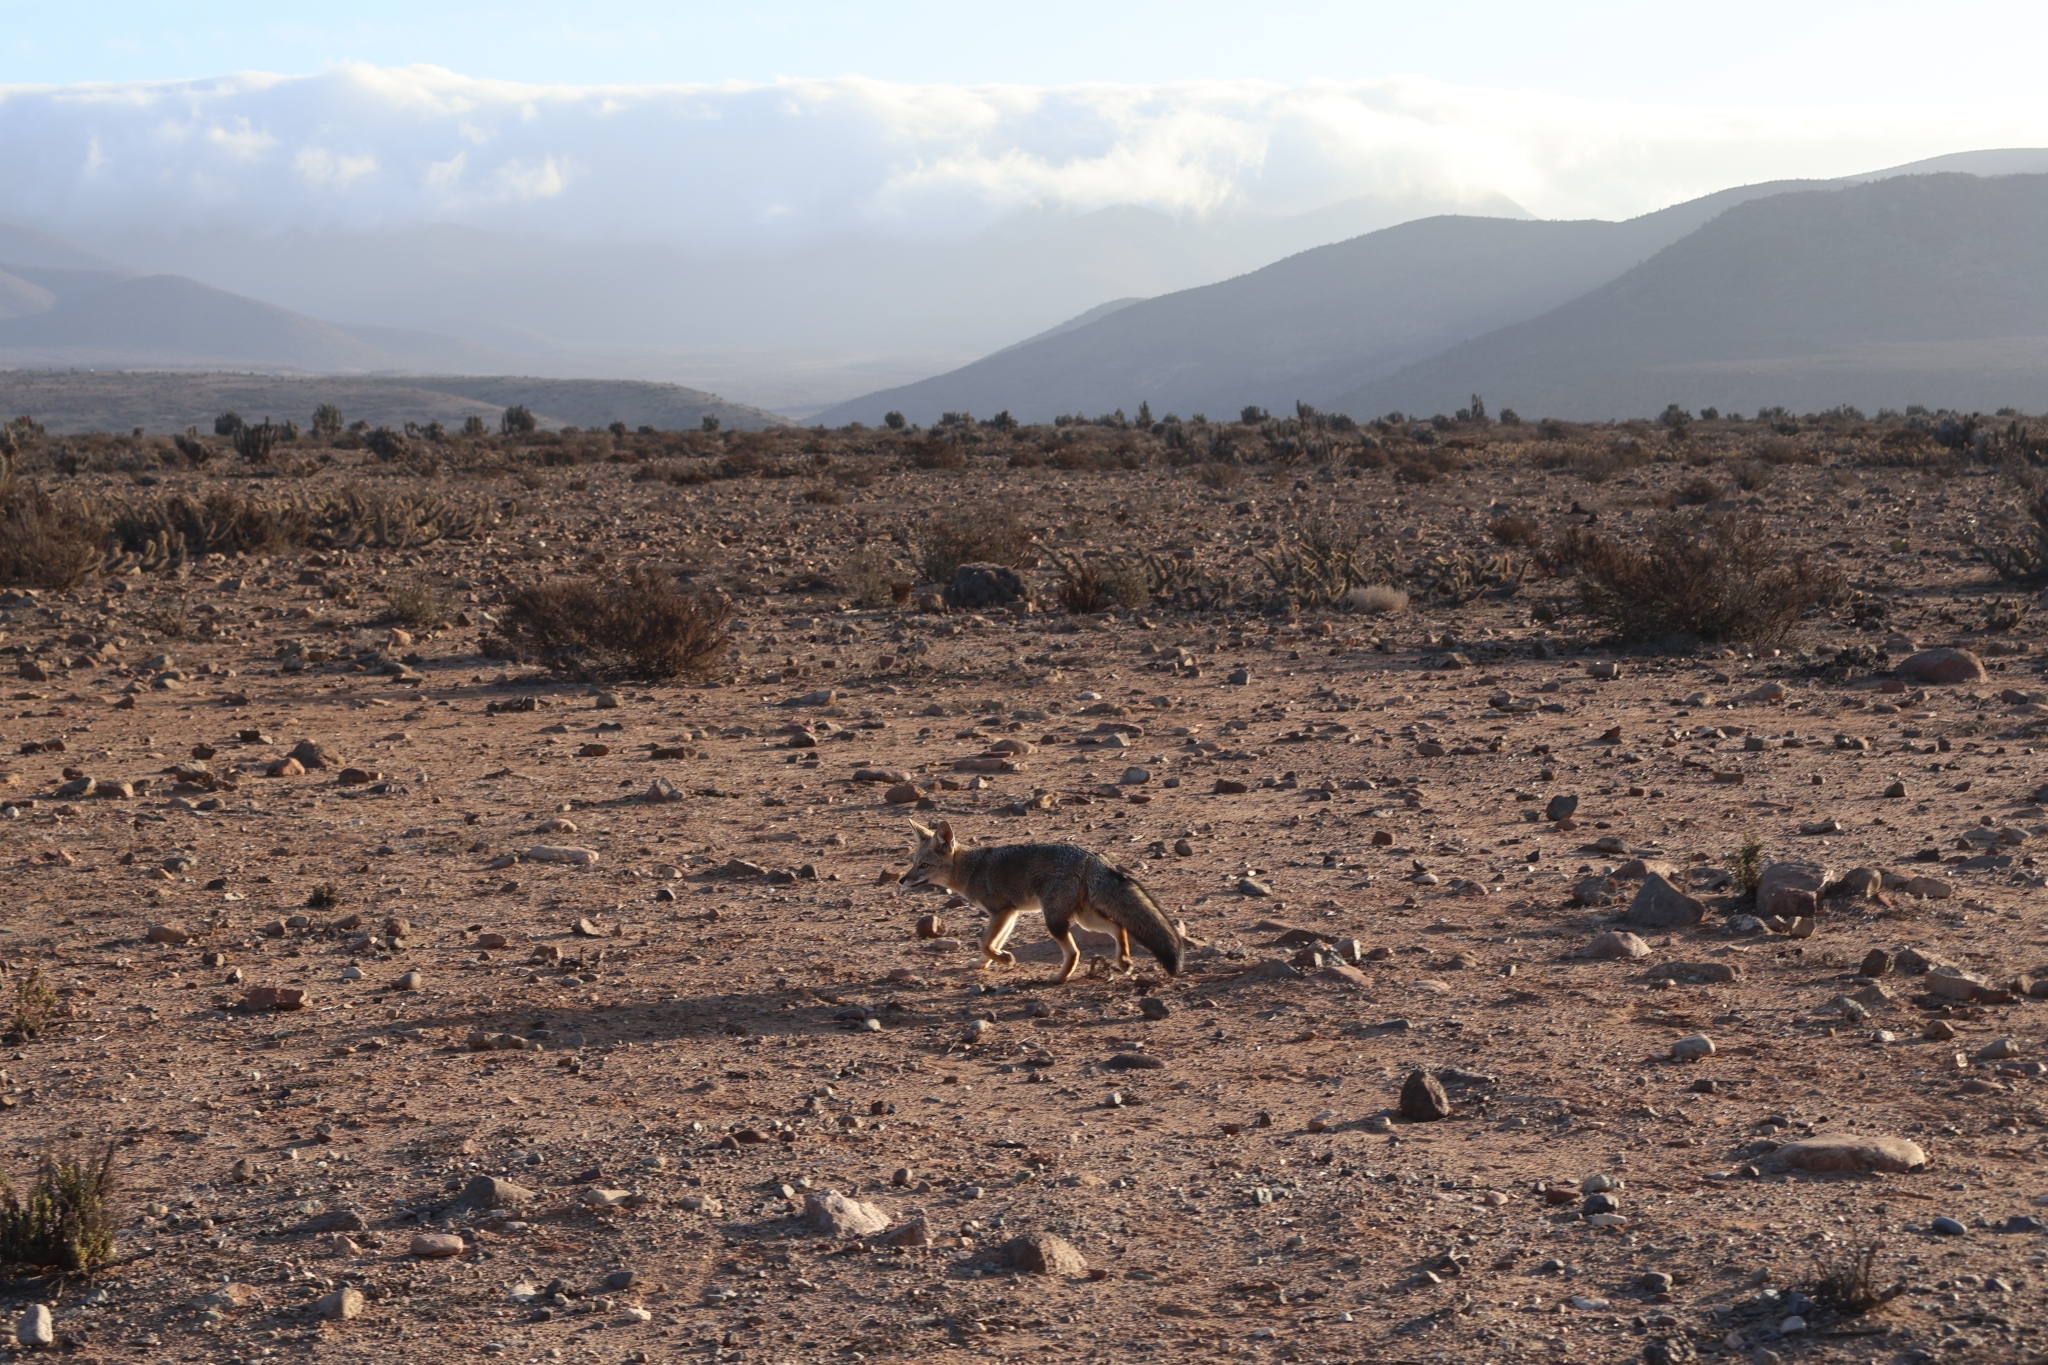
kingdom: Animalia
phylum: Chordata
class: Mammalia
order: Carnivora
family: Canidae
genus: Lycalopex
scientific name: Lycalopex gymnocercus
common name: Pampas fox
